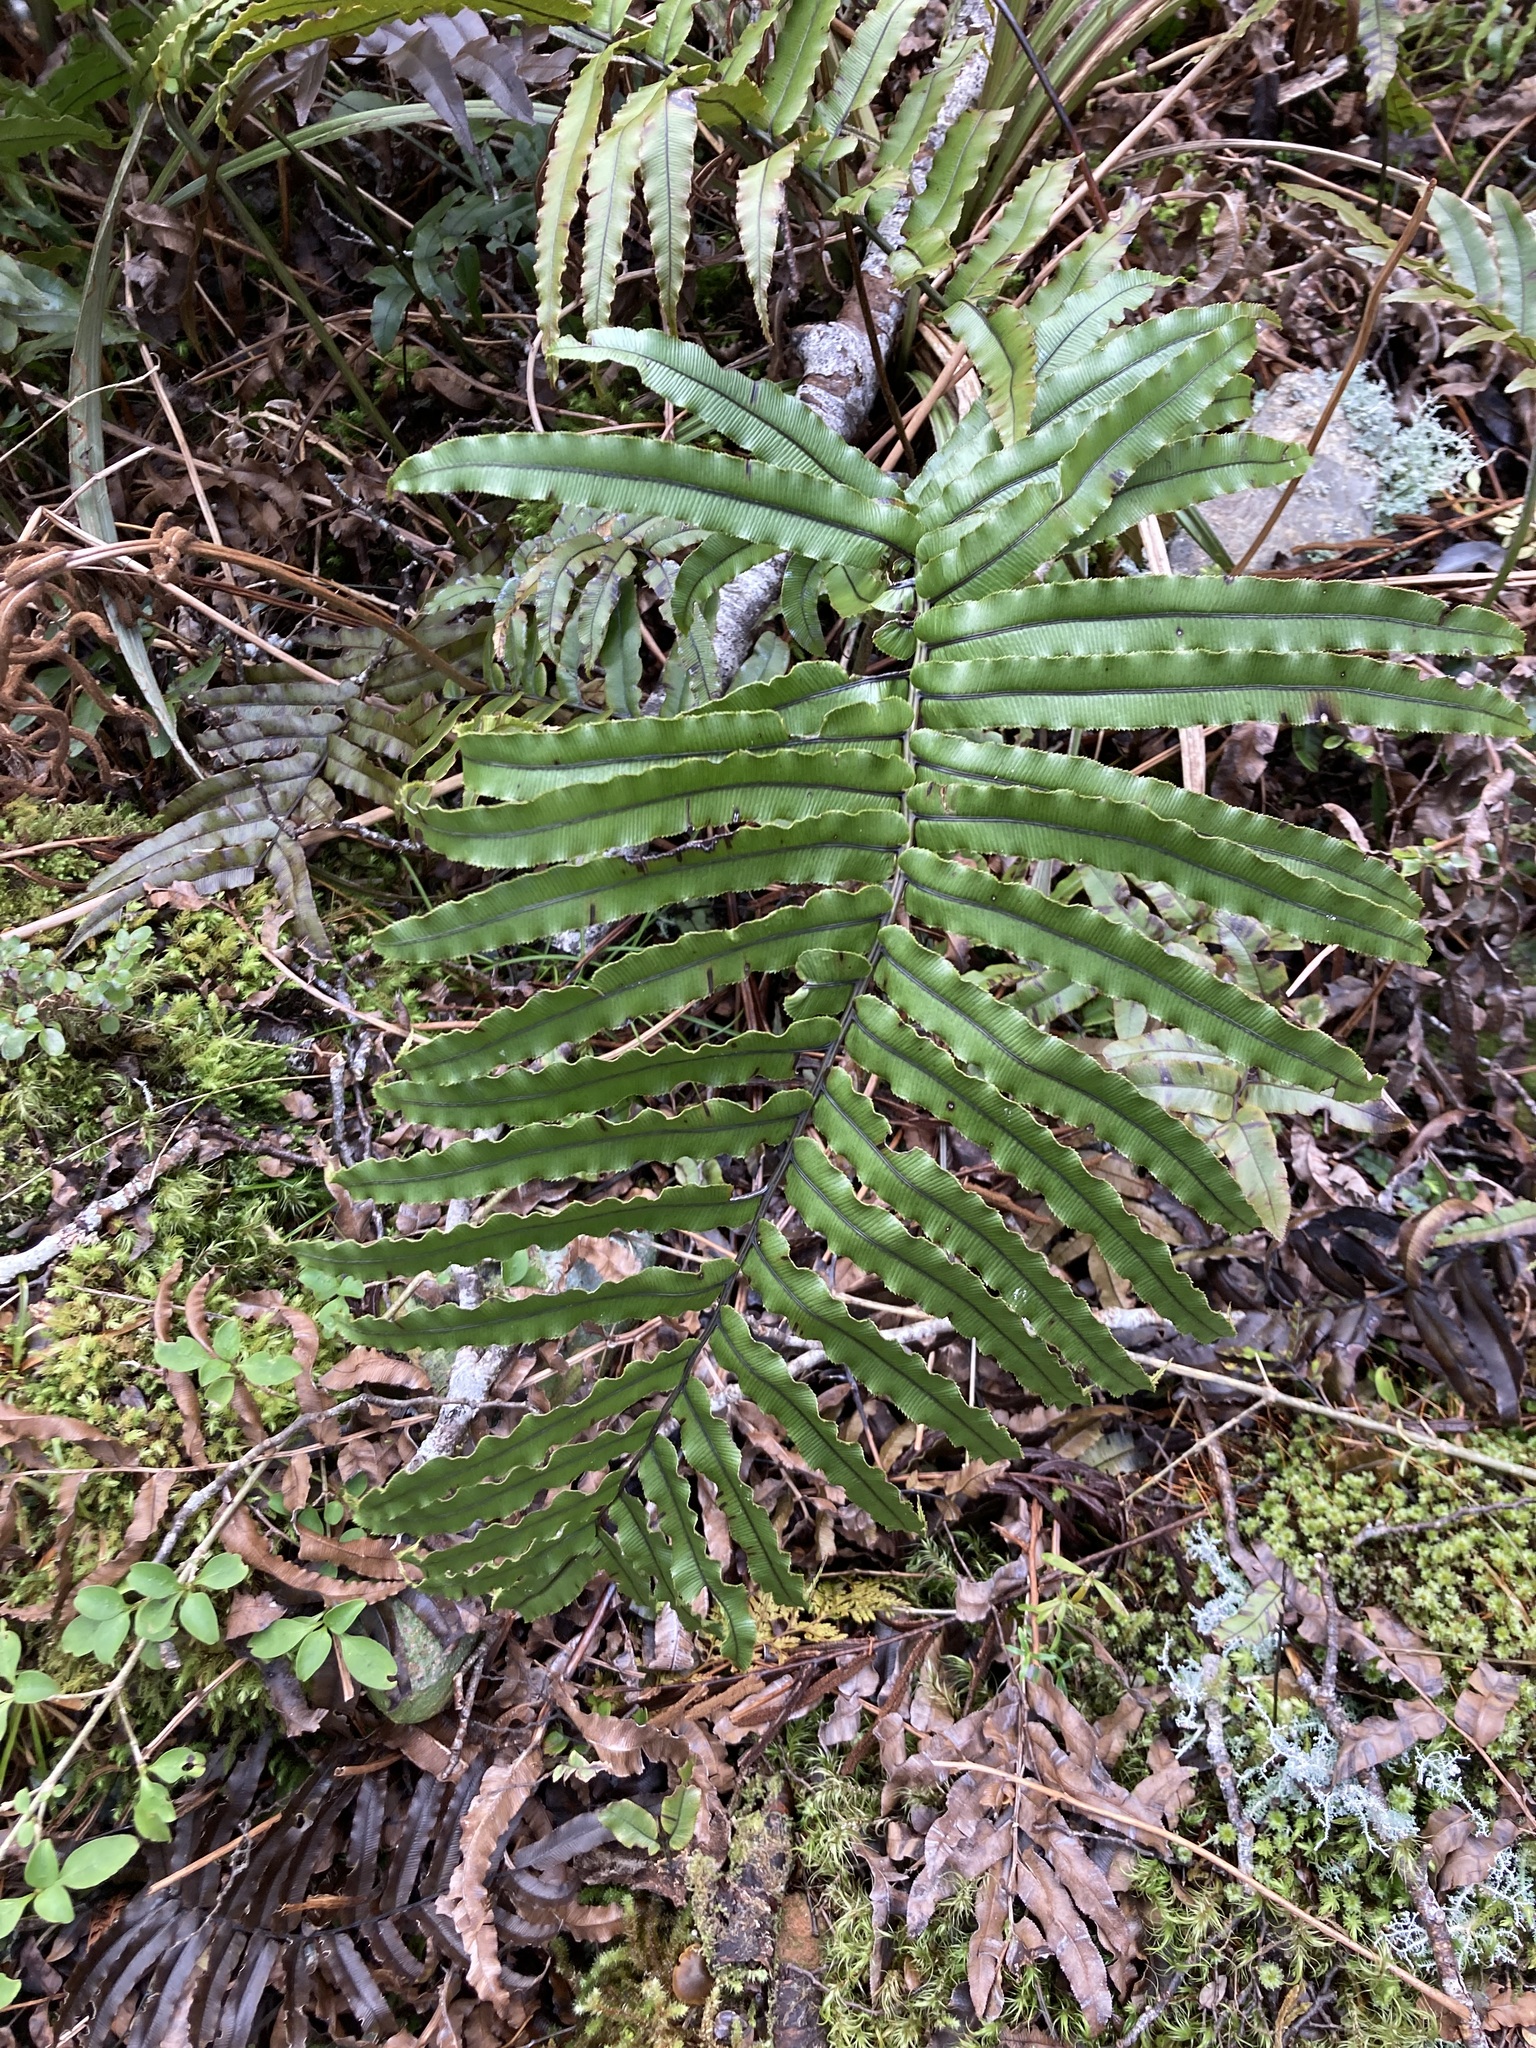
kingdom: Plantae
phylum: Tracheophyta
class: Polypodiopsida
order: Polypodiales
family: Blechnaceae
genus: Parablechnum
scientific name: Parablechnum montanum
